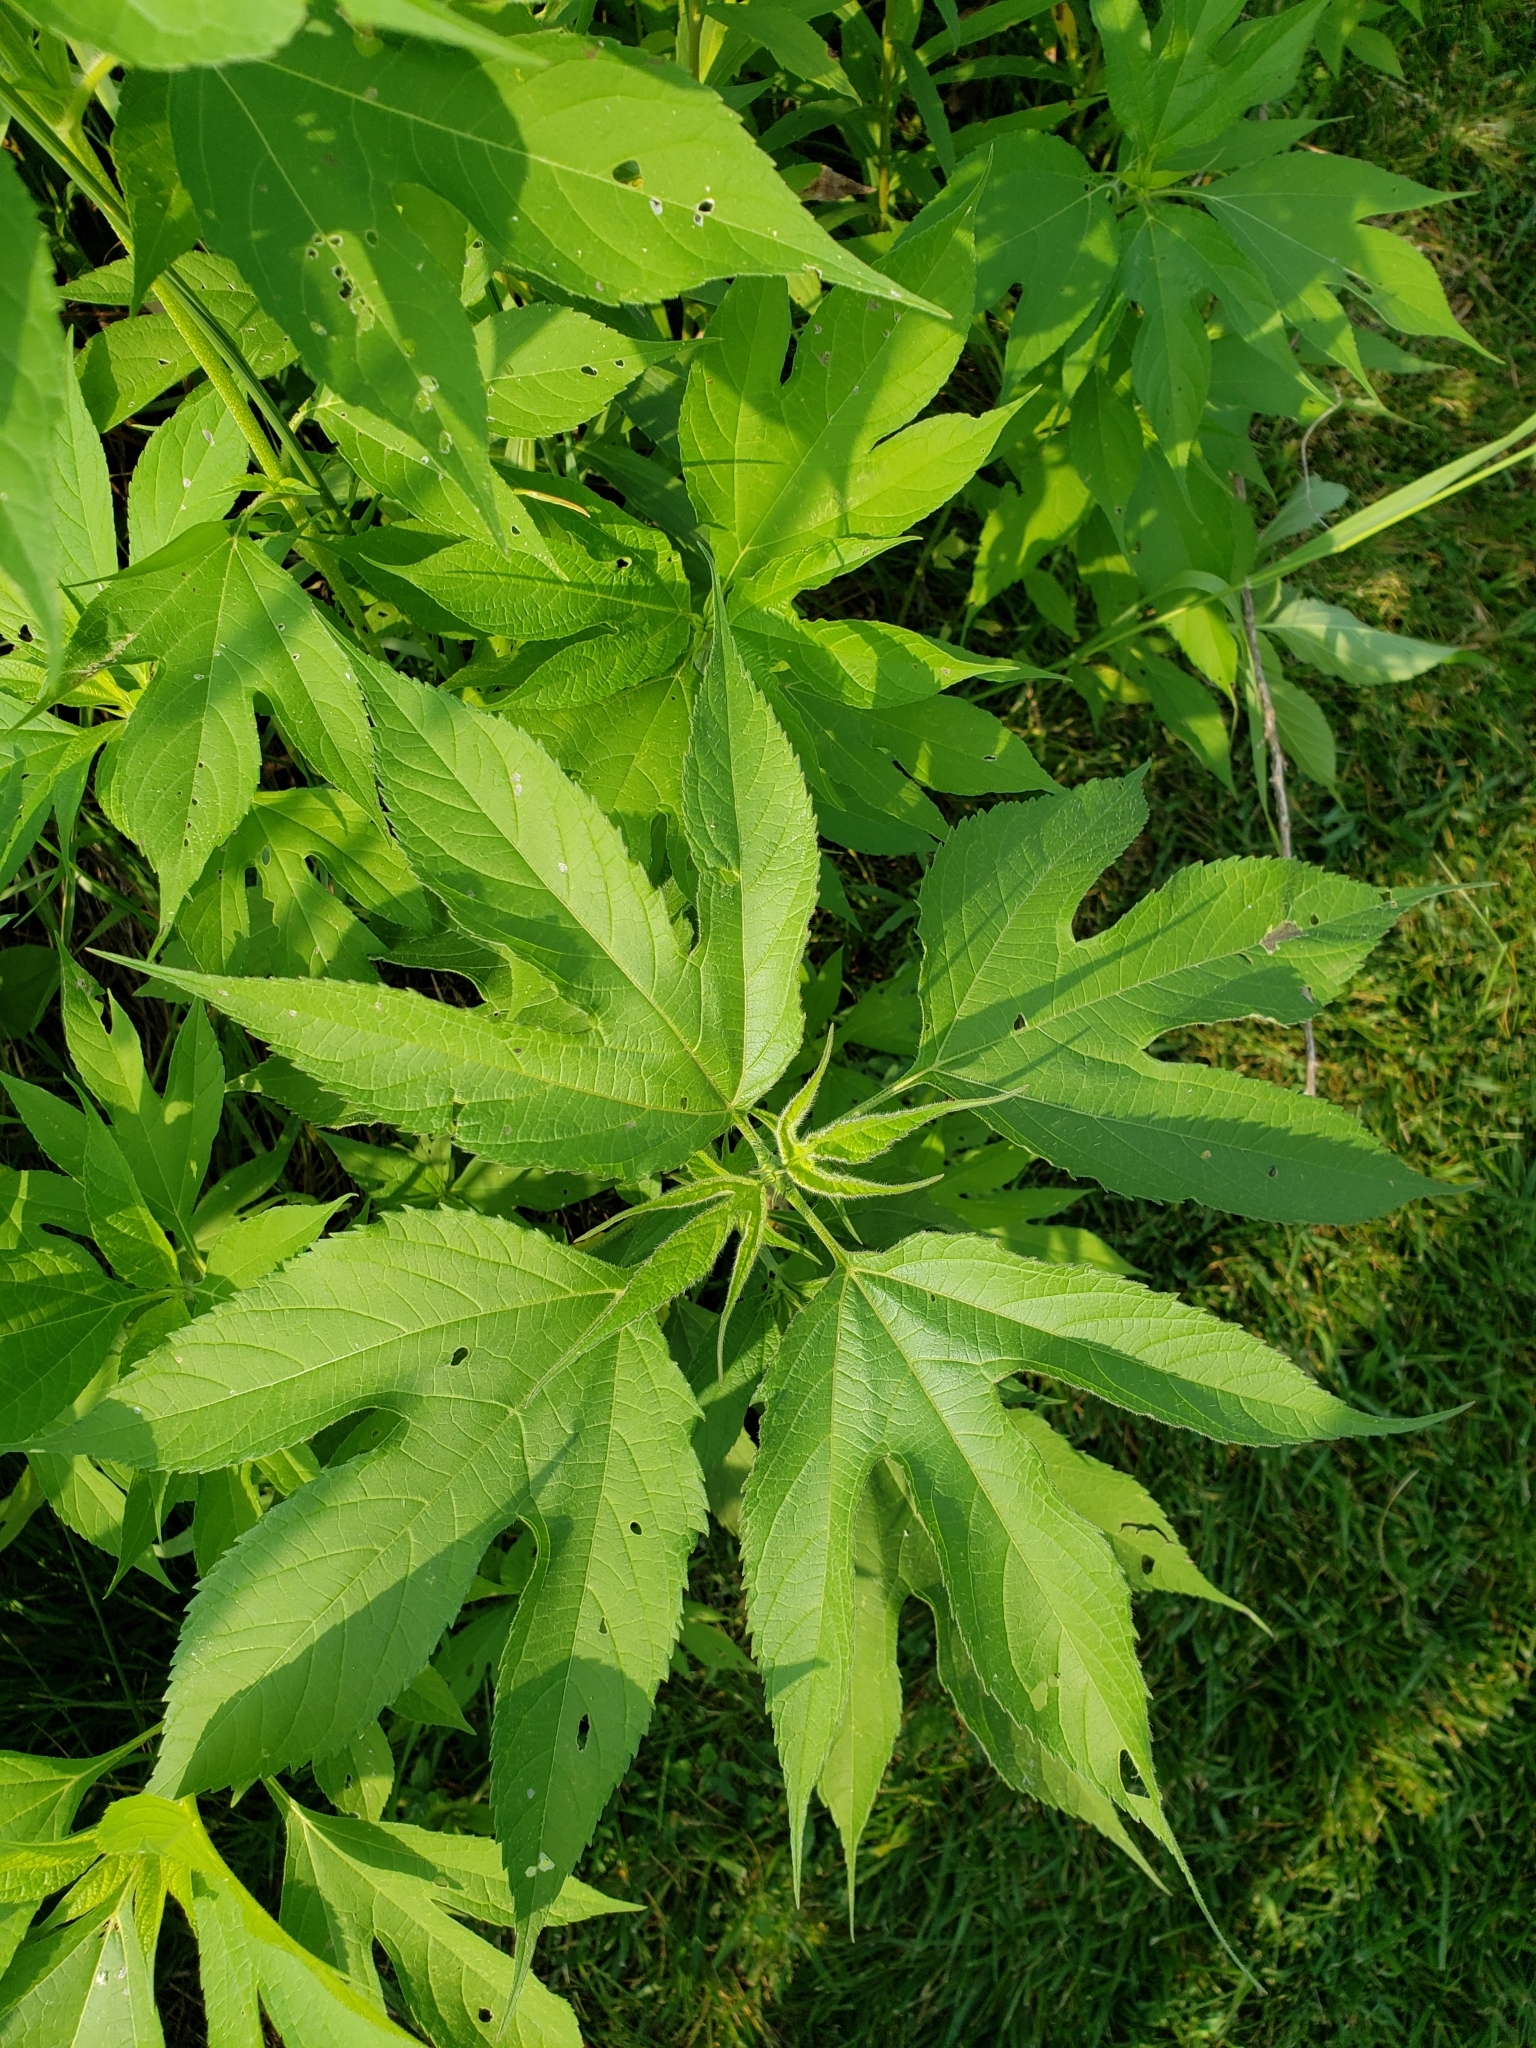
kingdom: Plantae
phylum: Tracheophyta
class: Magnoliopsida
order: Asterales
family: Asteraceae
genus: Ambrosia
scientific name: Ambrosia trifida
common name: Giant ragweed
